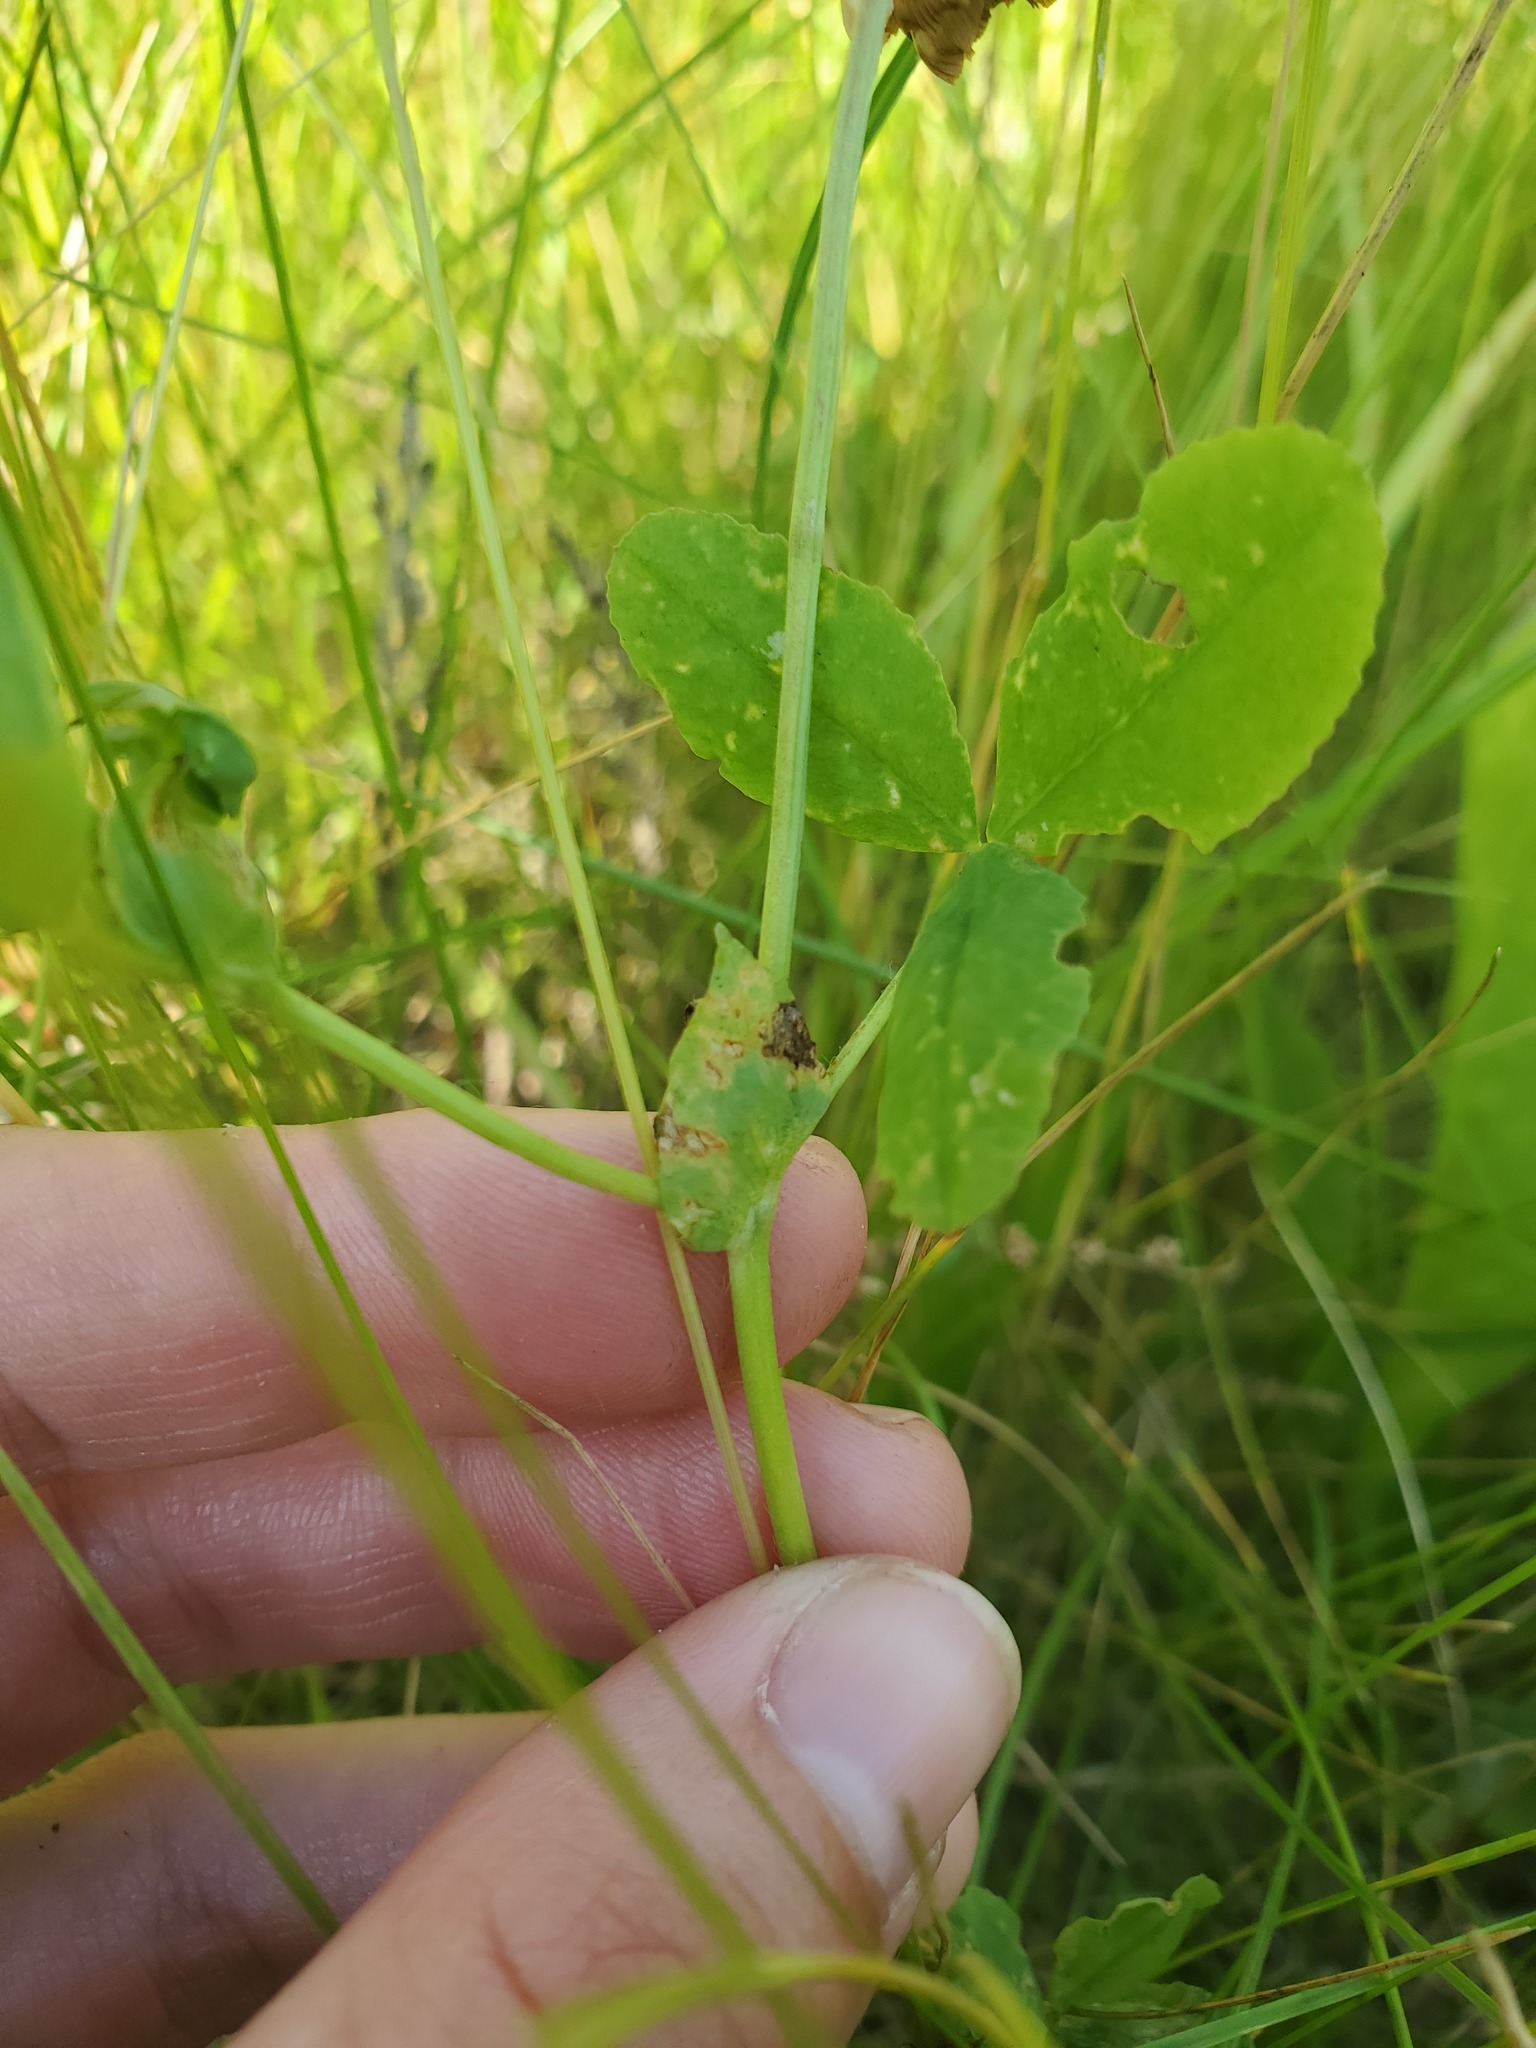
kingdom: Plantae
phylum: Tracheophyta
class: Magnoliopsida
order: Fabales
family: Fabaceae
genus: Trifolium
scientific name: Trifolium reflexum
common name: Buffalo clover
